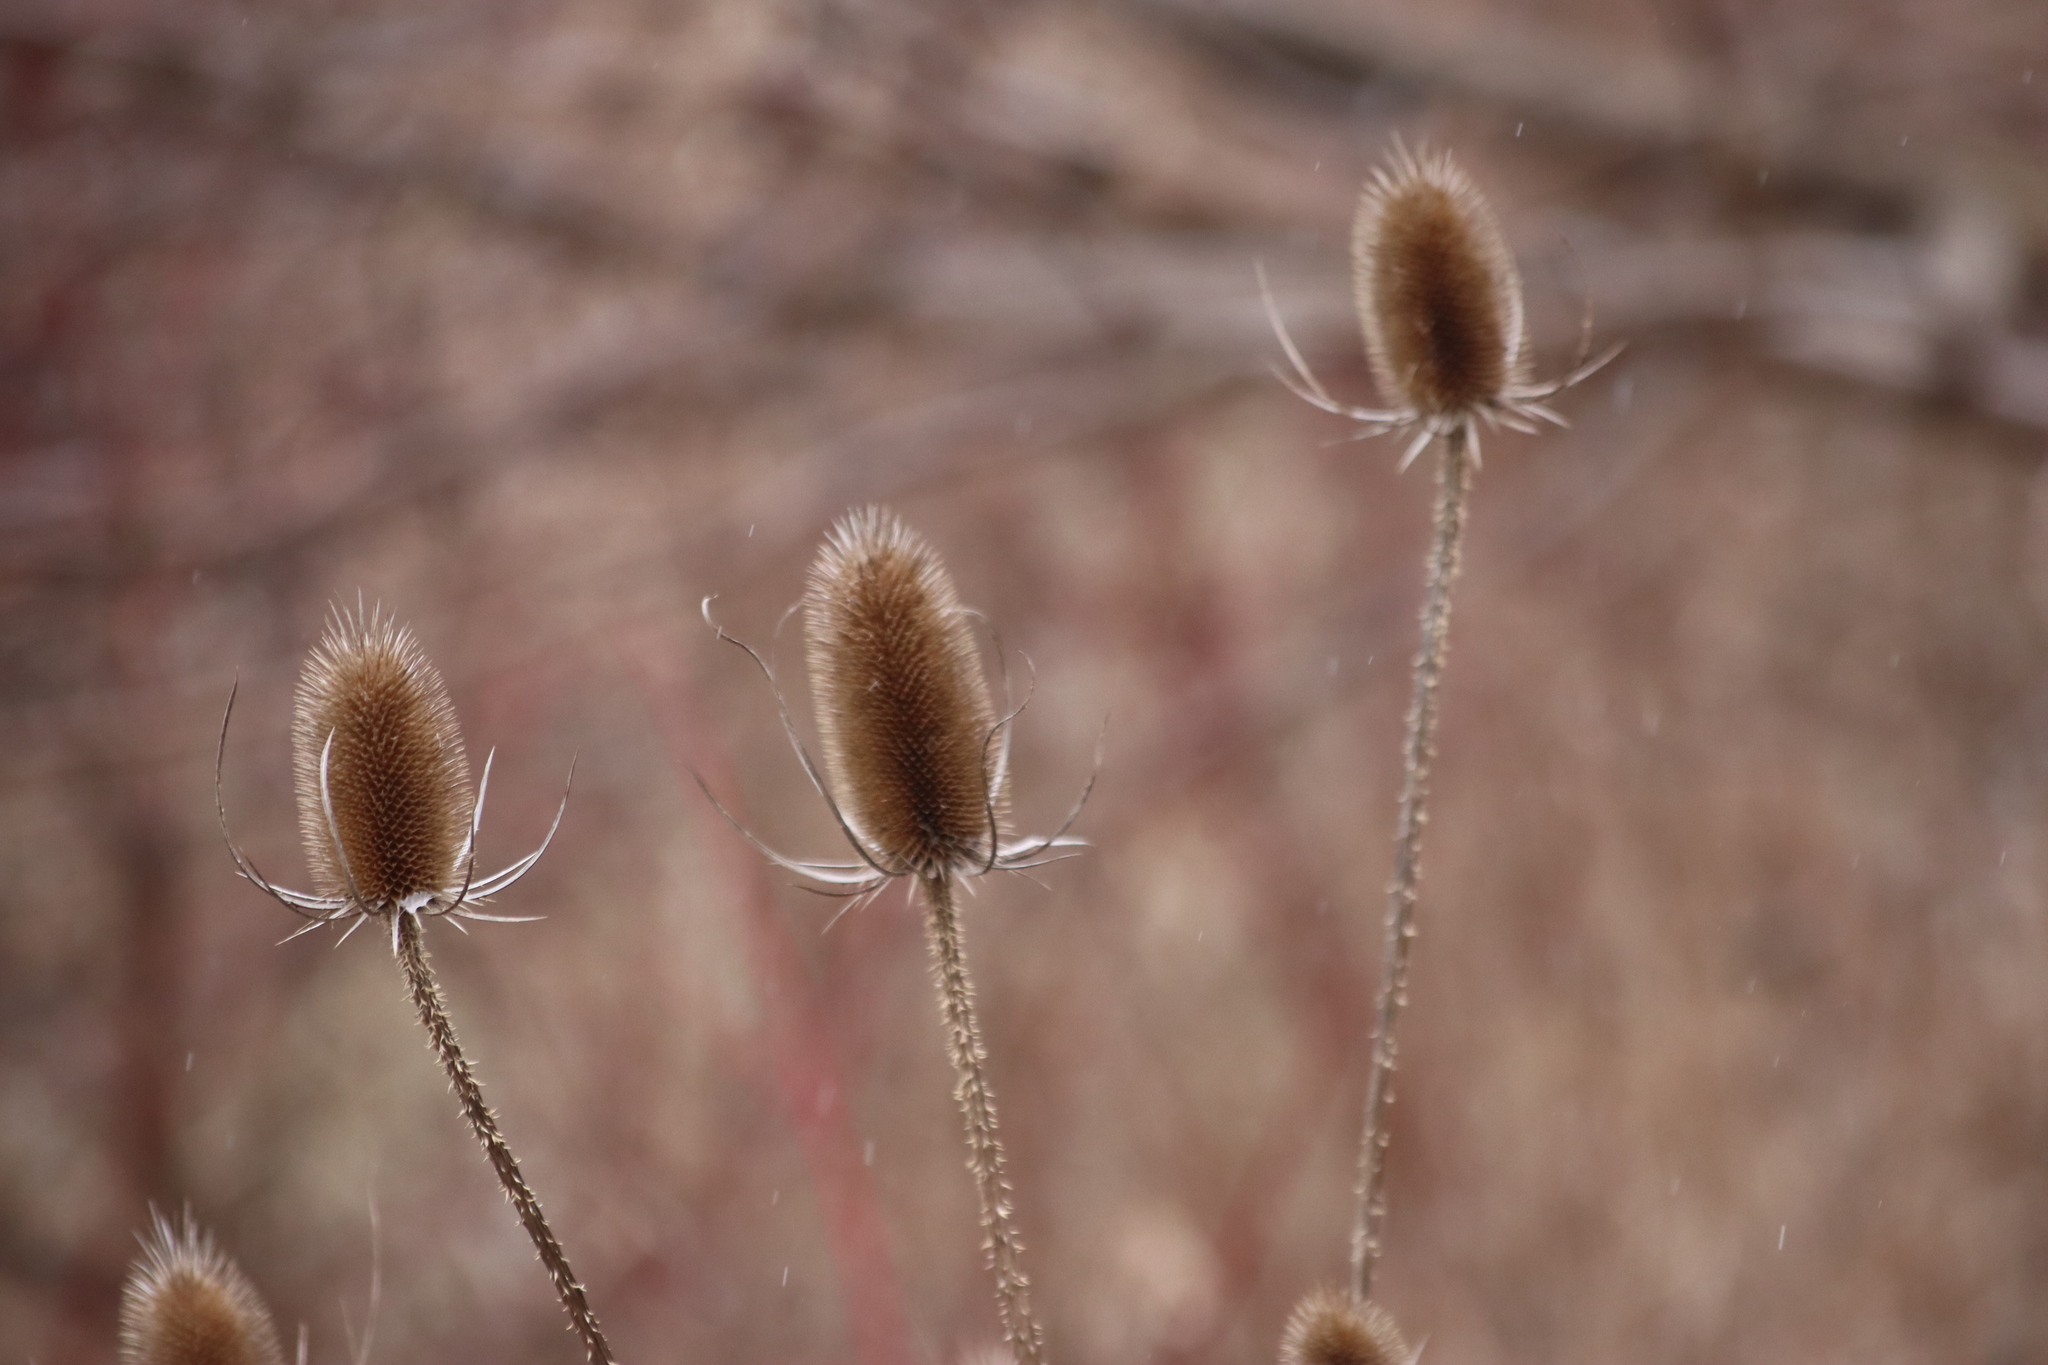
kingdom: Plantae
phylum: Tracheophyta
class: Magnoliopsida
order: Dipsacales
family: Caprifoliaceae
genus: Dipsacus
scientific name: Dipsacus fullonum
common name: Teasel
